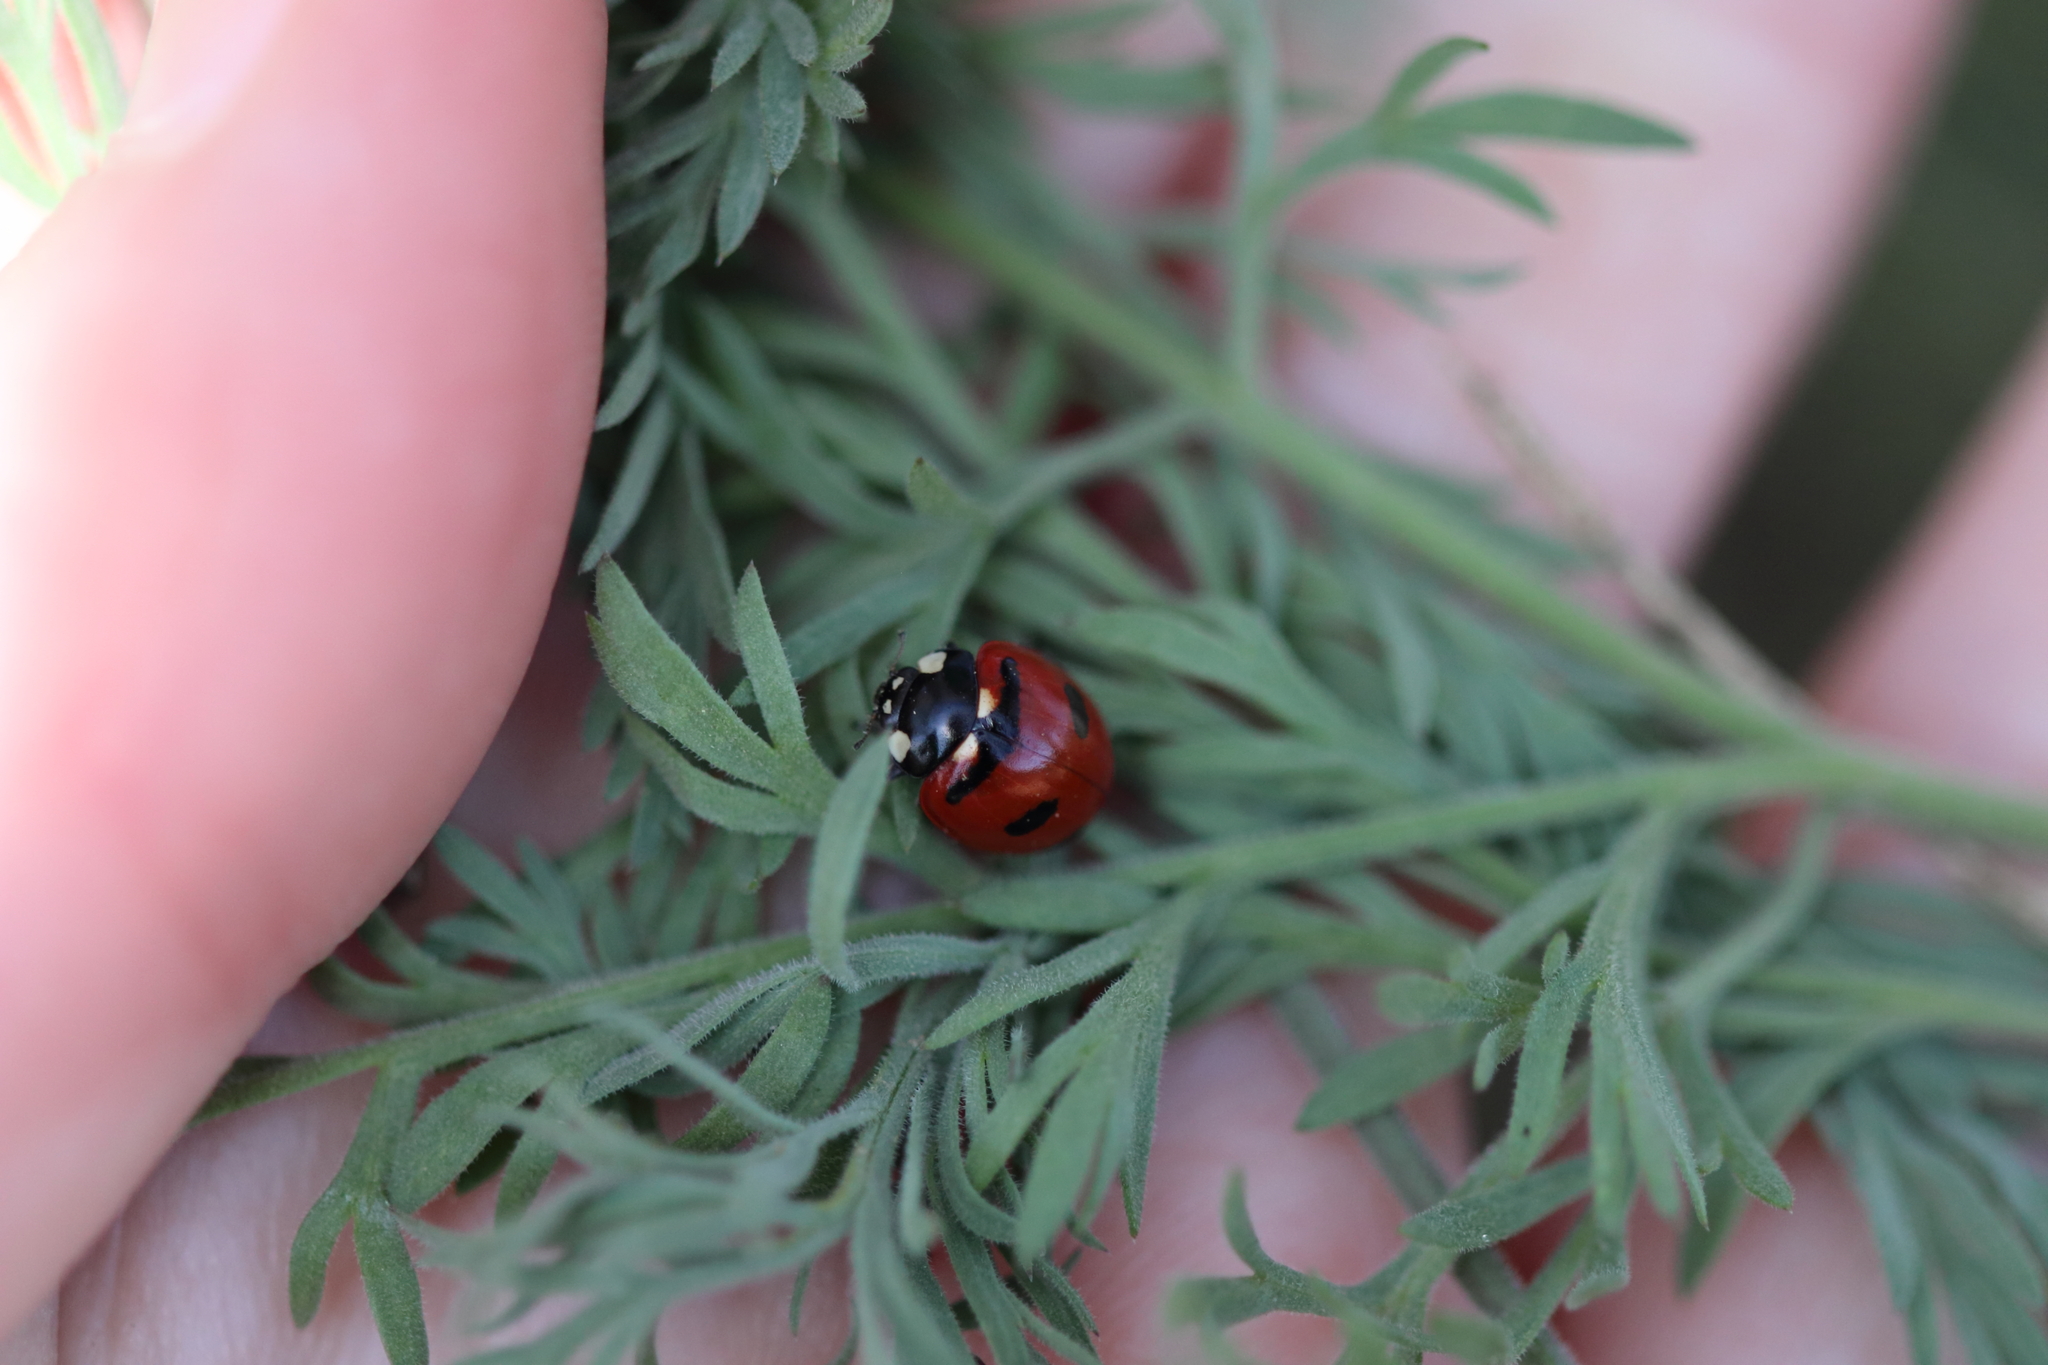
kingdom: Animalia
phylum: Arthropoda
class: Insecta
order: Coleoptera
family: Coccinellidae
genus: Coccinella
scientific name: Coccinella transversoguttata
